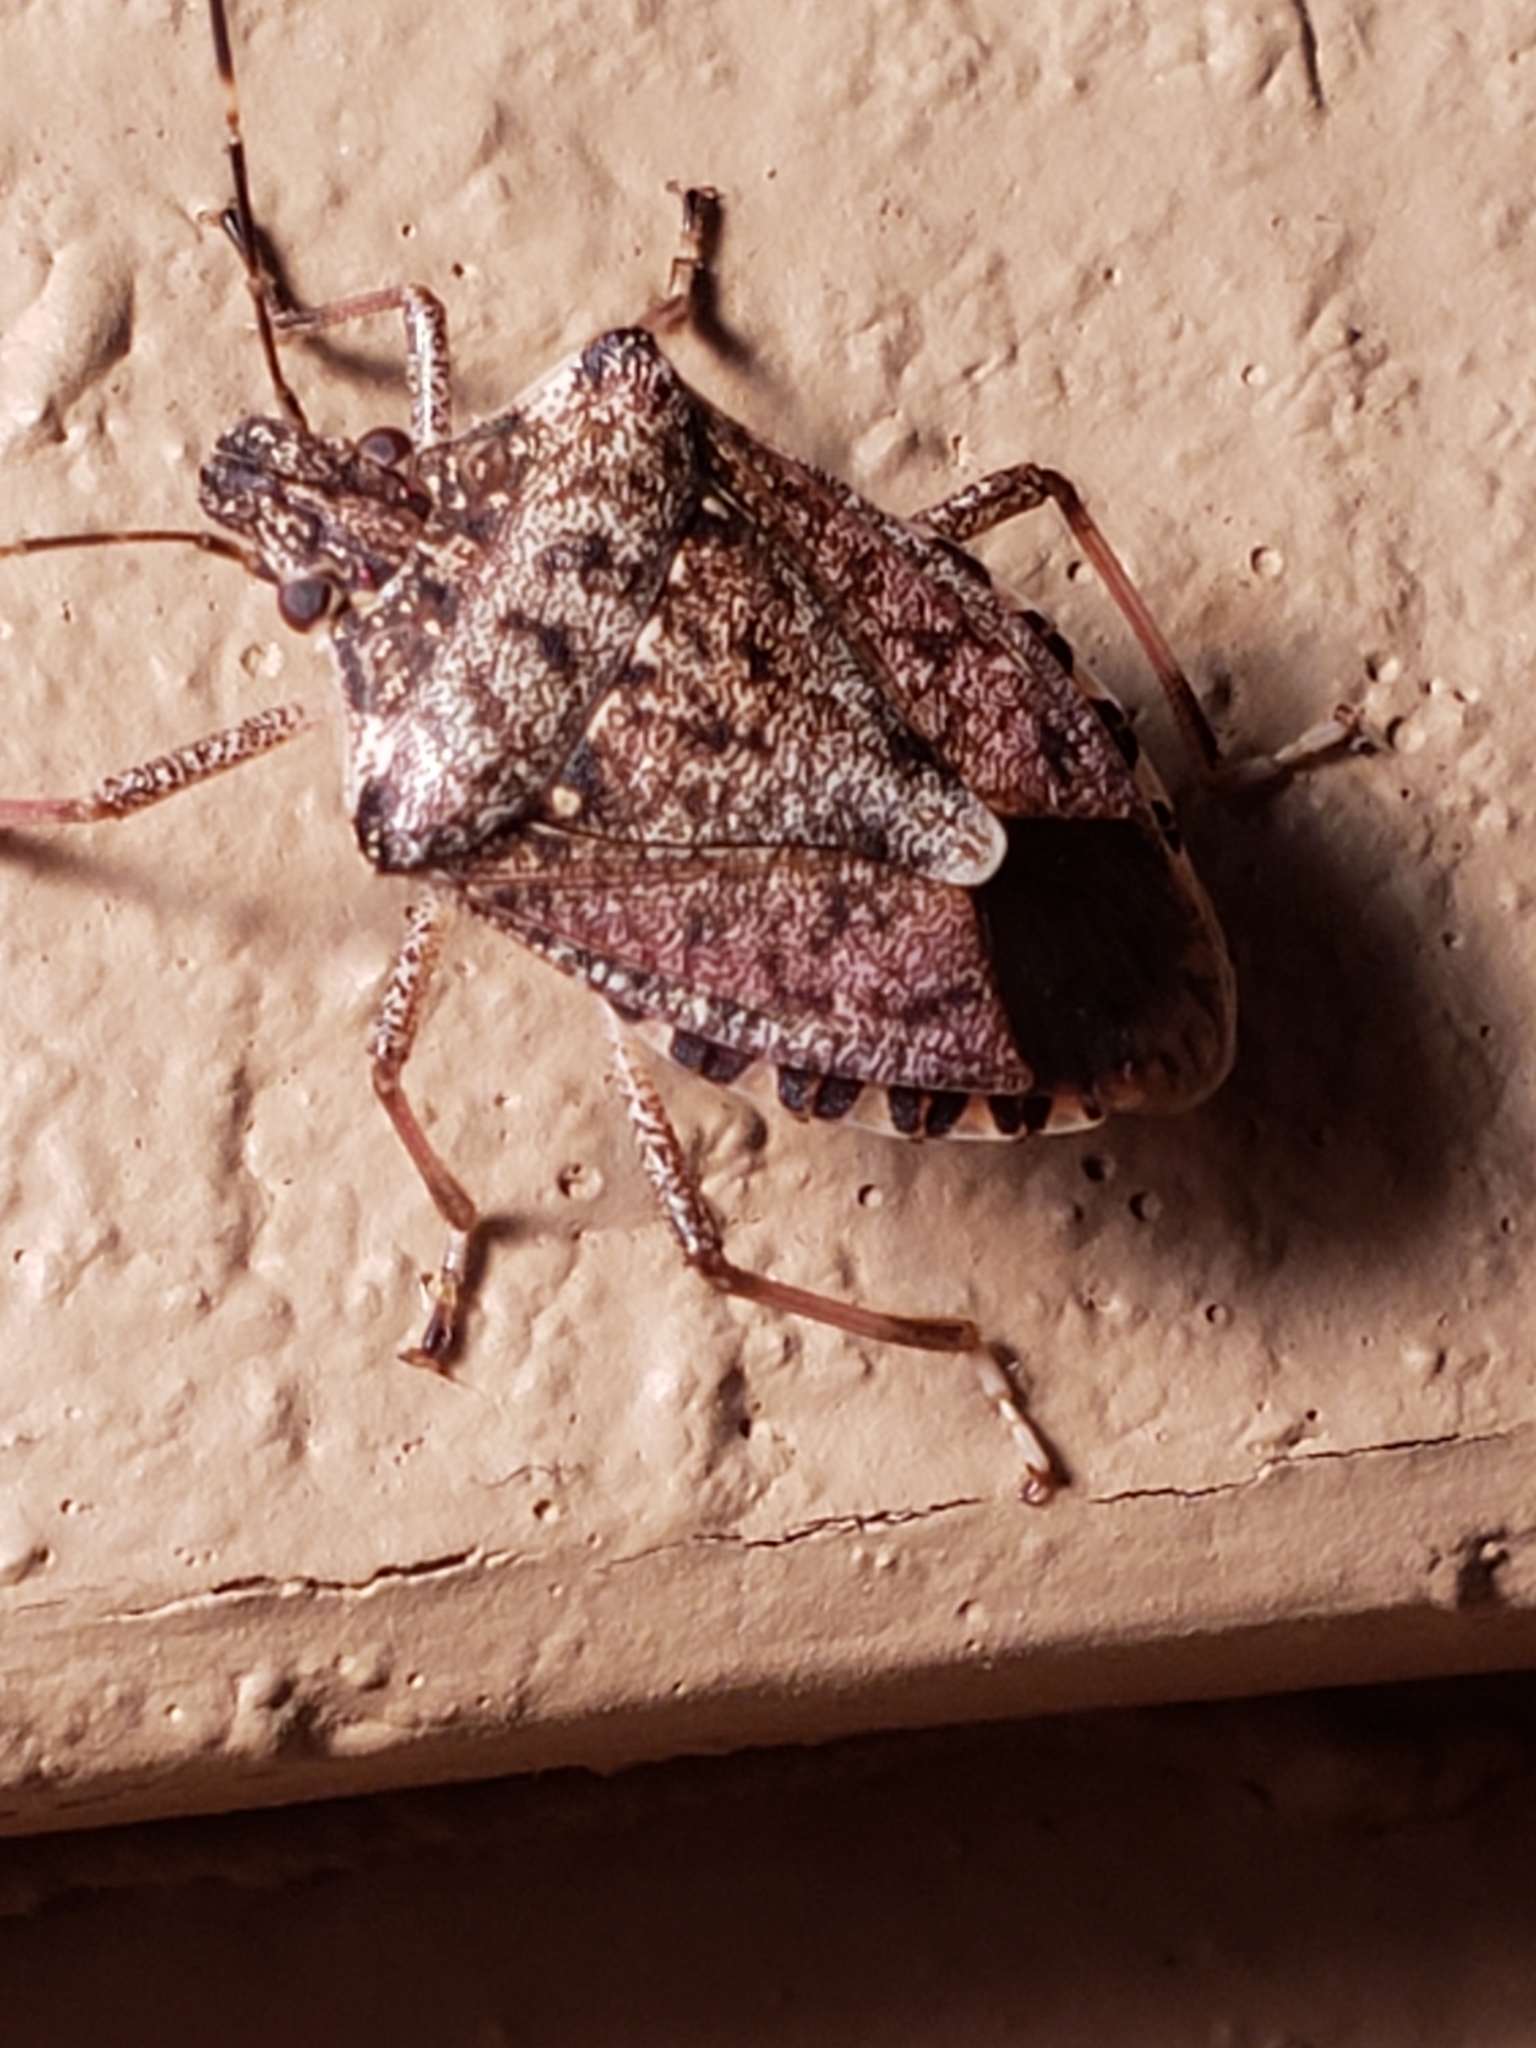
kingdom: Animalia
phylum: Arthropoda
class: Insecta
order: Hemiptera
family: Pentatomidae
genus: Halyomorpha
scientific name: Halyomorpha halys
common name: Brown marmorated stink bug
